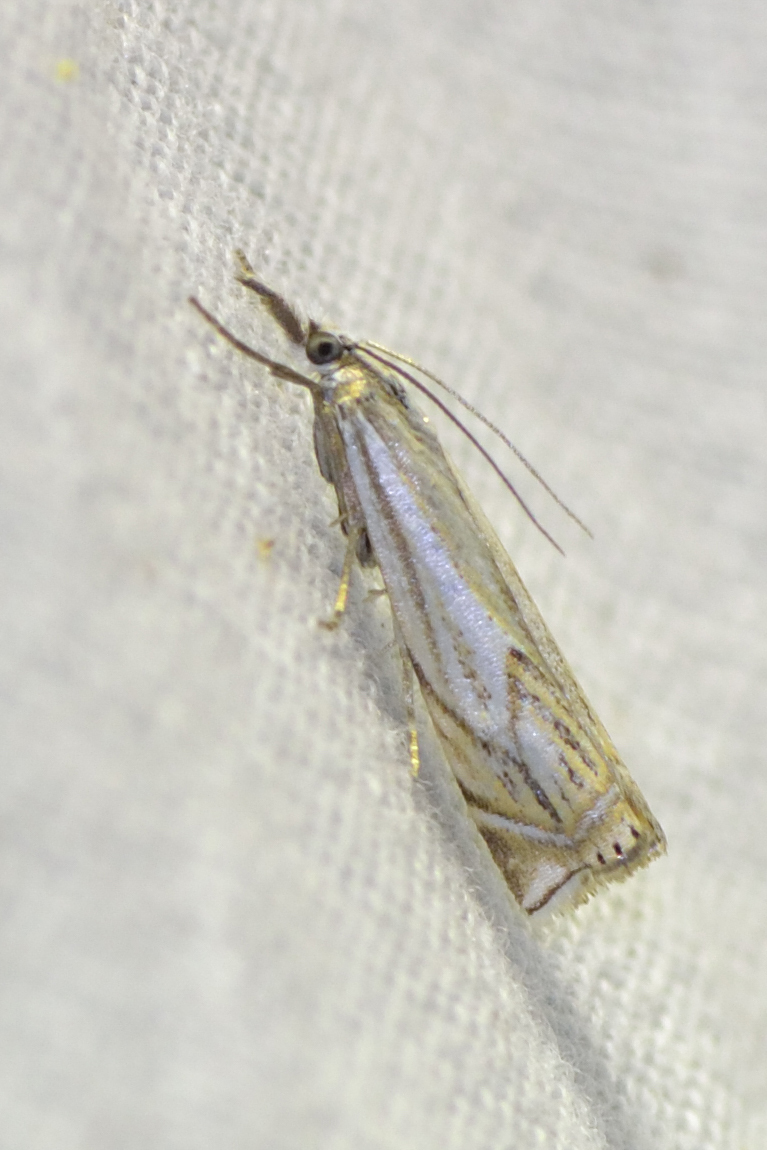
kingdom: Animalia
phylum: Arthropoda
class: Insecta
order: Lepidoptera
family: Crambidae
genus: Crambus
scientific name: Crambus nemorella
